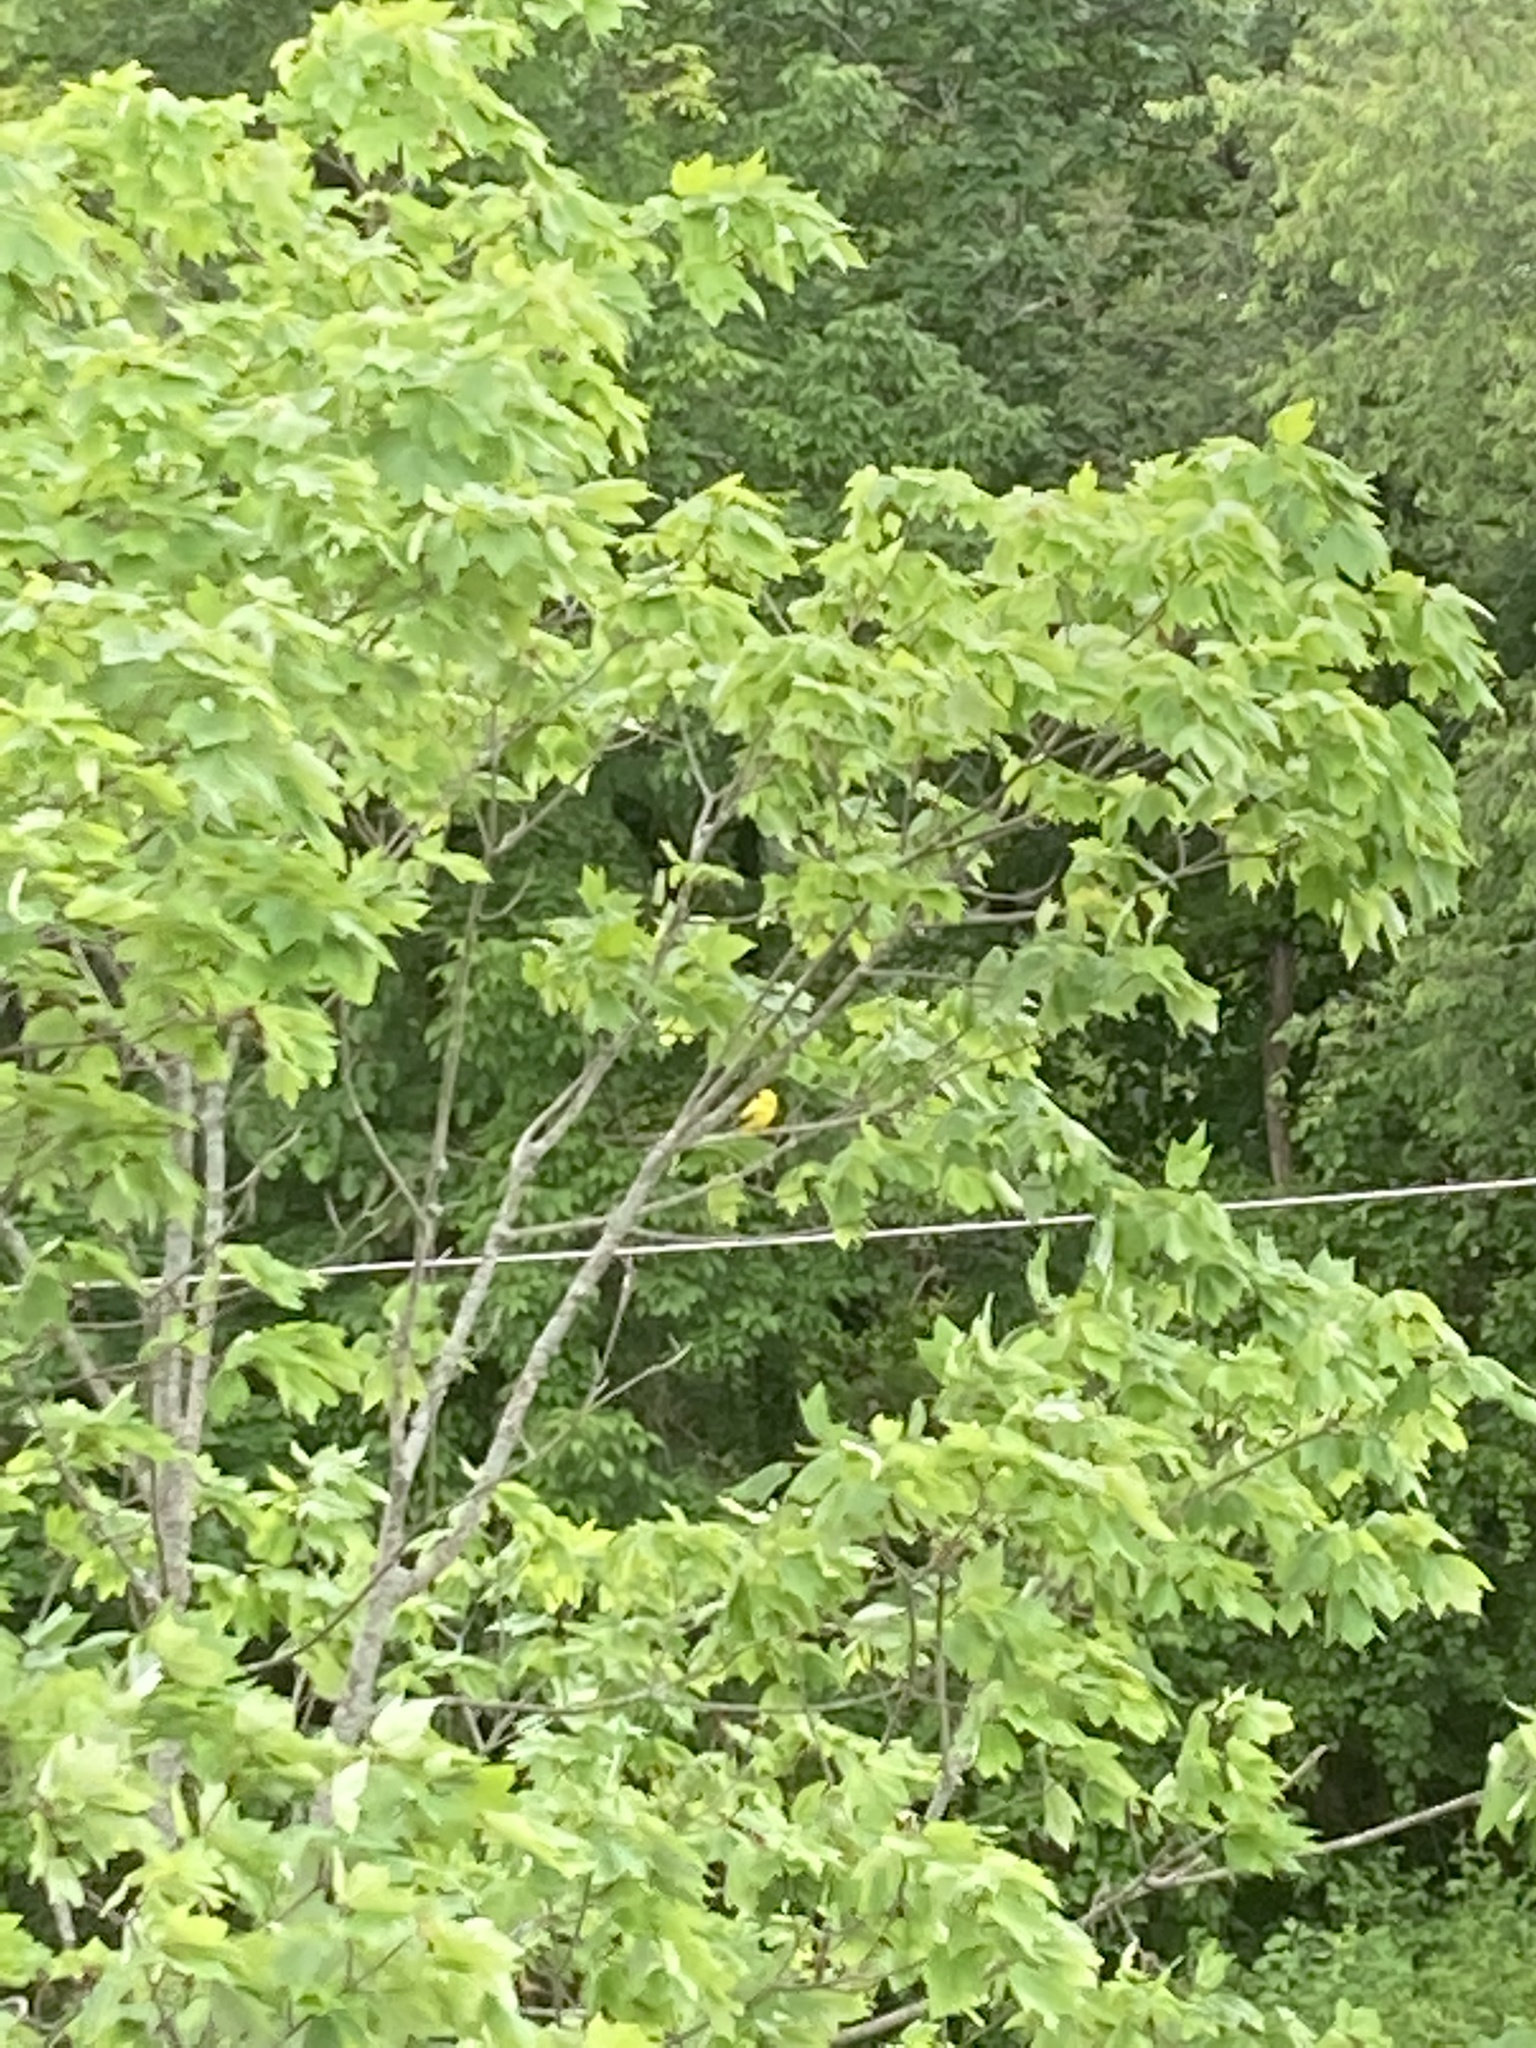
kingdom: Animalia
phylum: Chordata
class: Aves
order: Passeriformes
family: Fringillidae
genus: Spinus
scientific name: Spinus tristis
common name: American goldfinch
